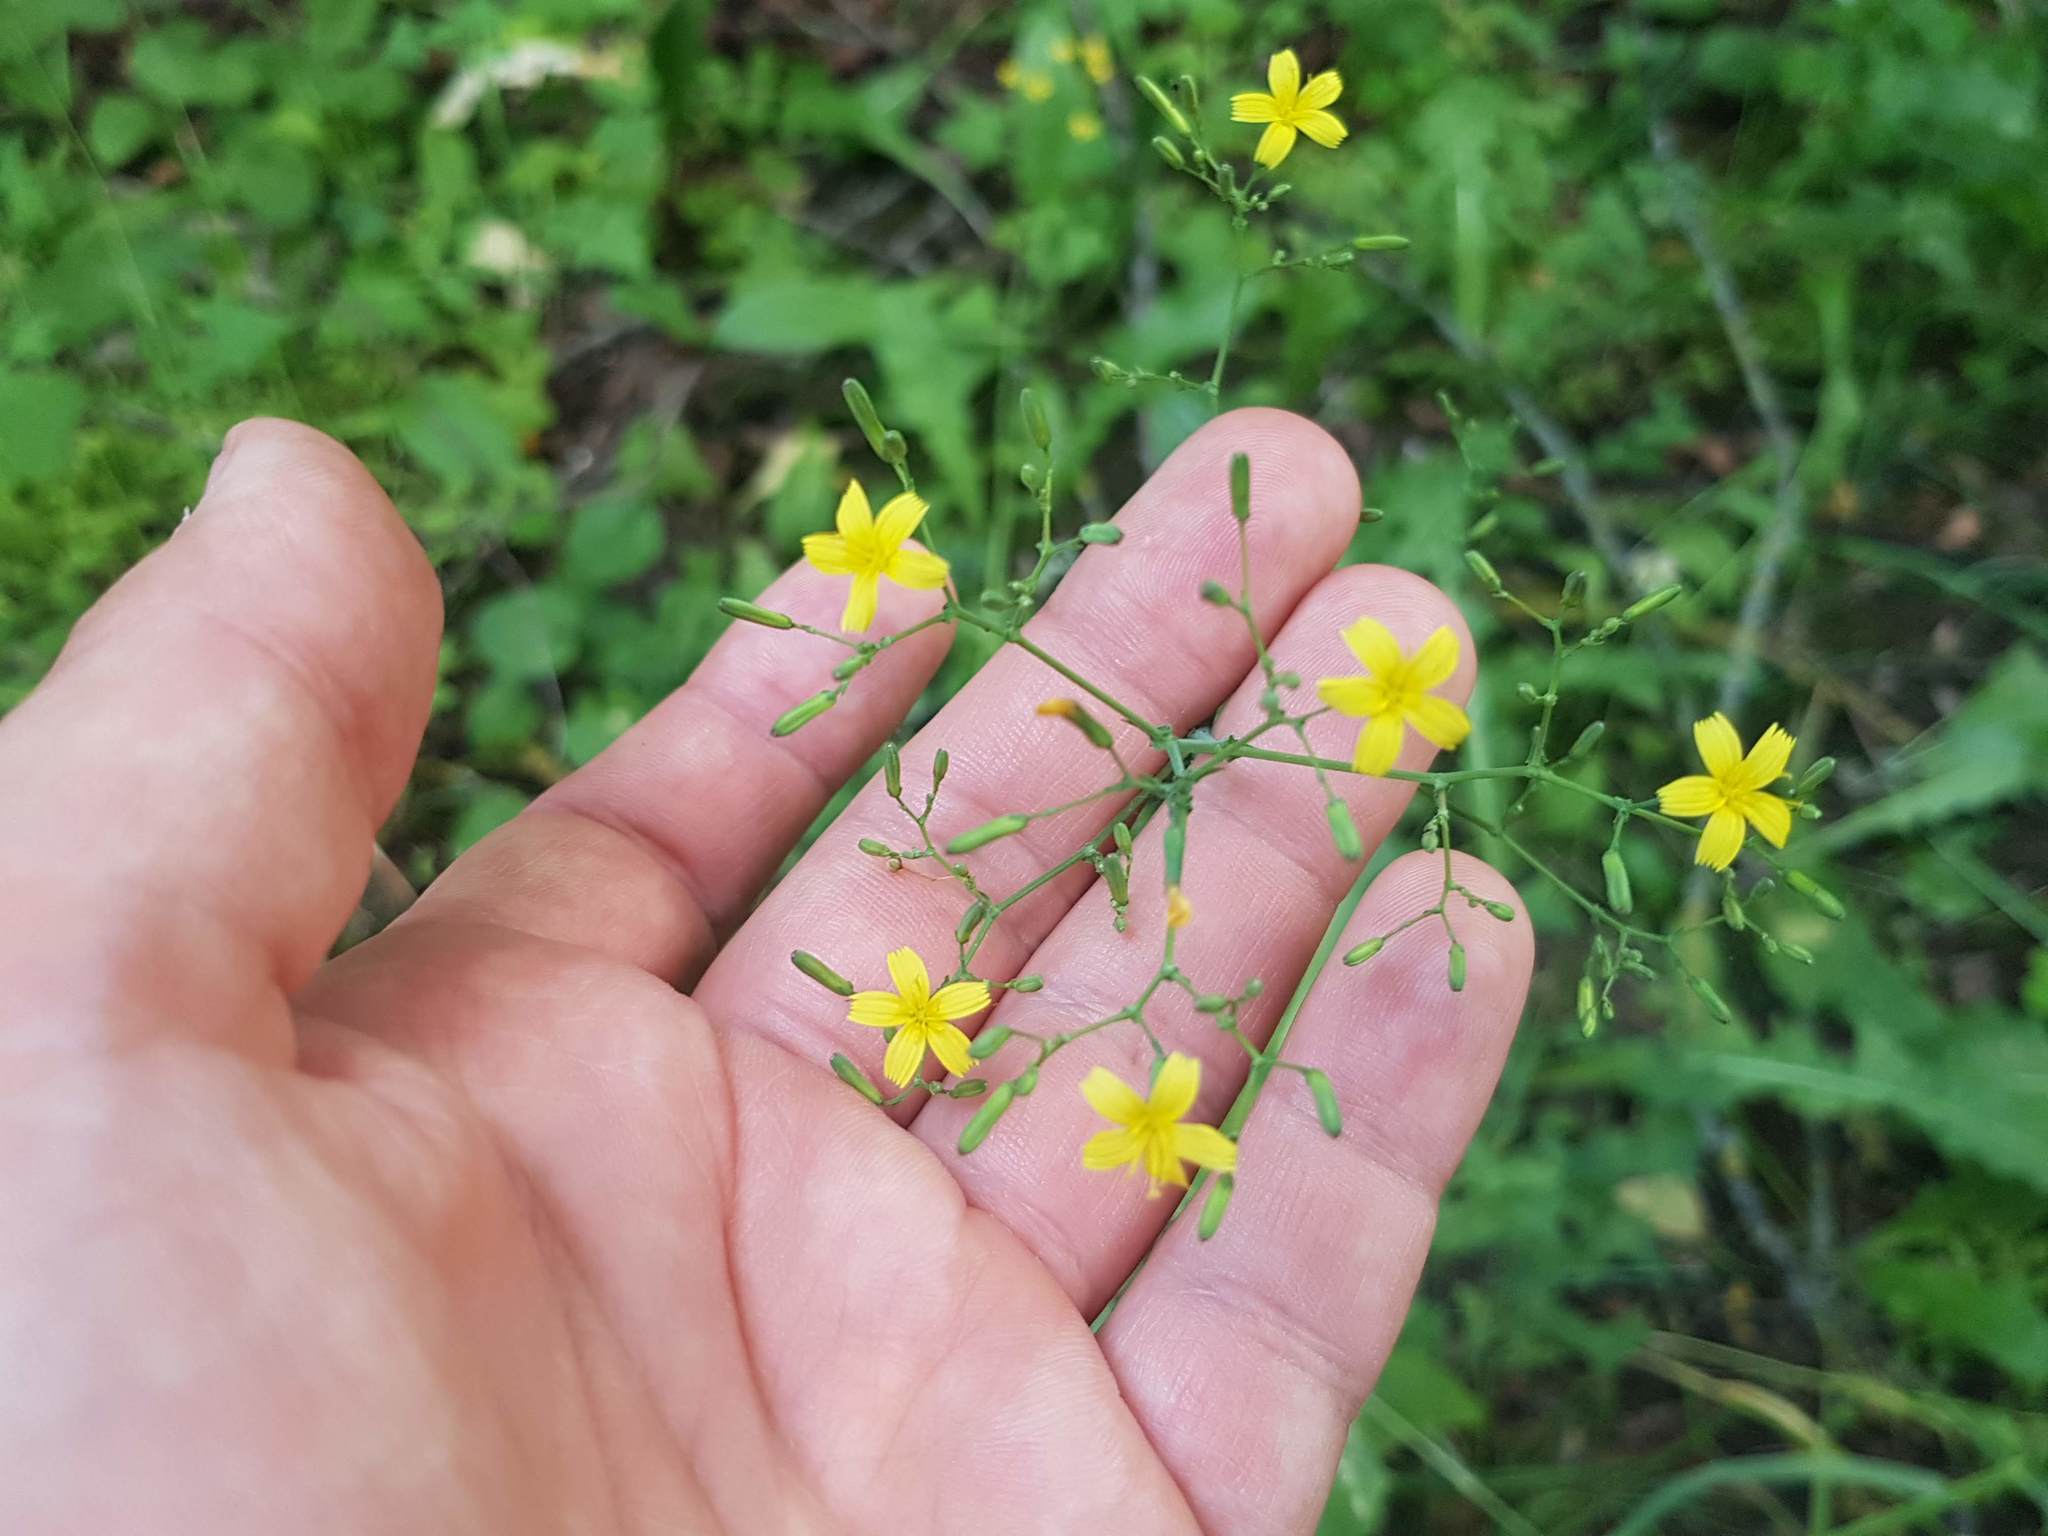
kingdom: Plantae
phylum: Tracheophyta
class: Magnoliopsida
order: Asterales
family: Asteraceae
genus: Mycelis
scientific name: Mycelis muralis
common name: Wall lettuce
